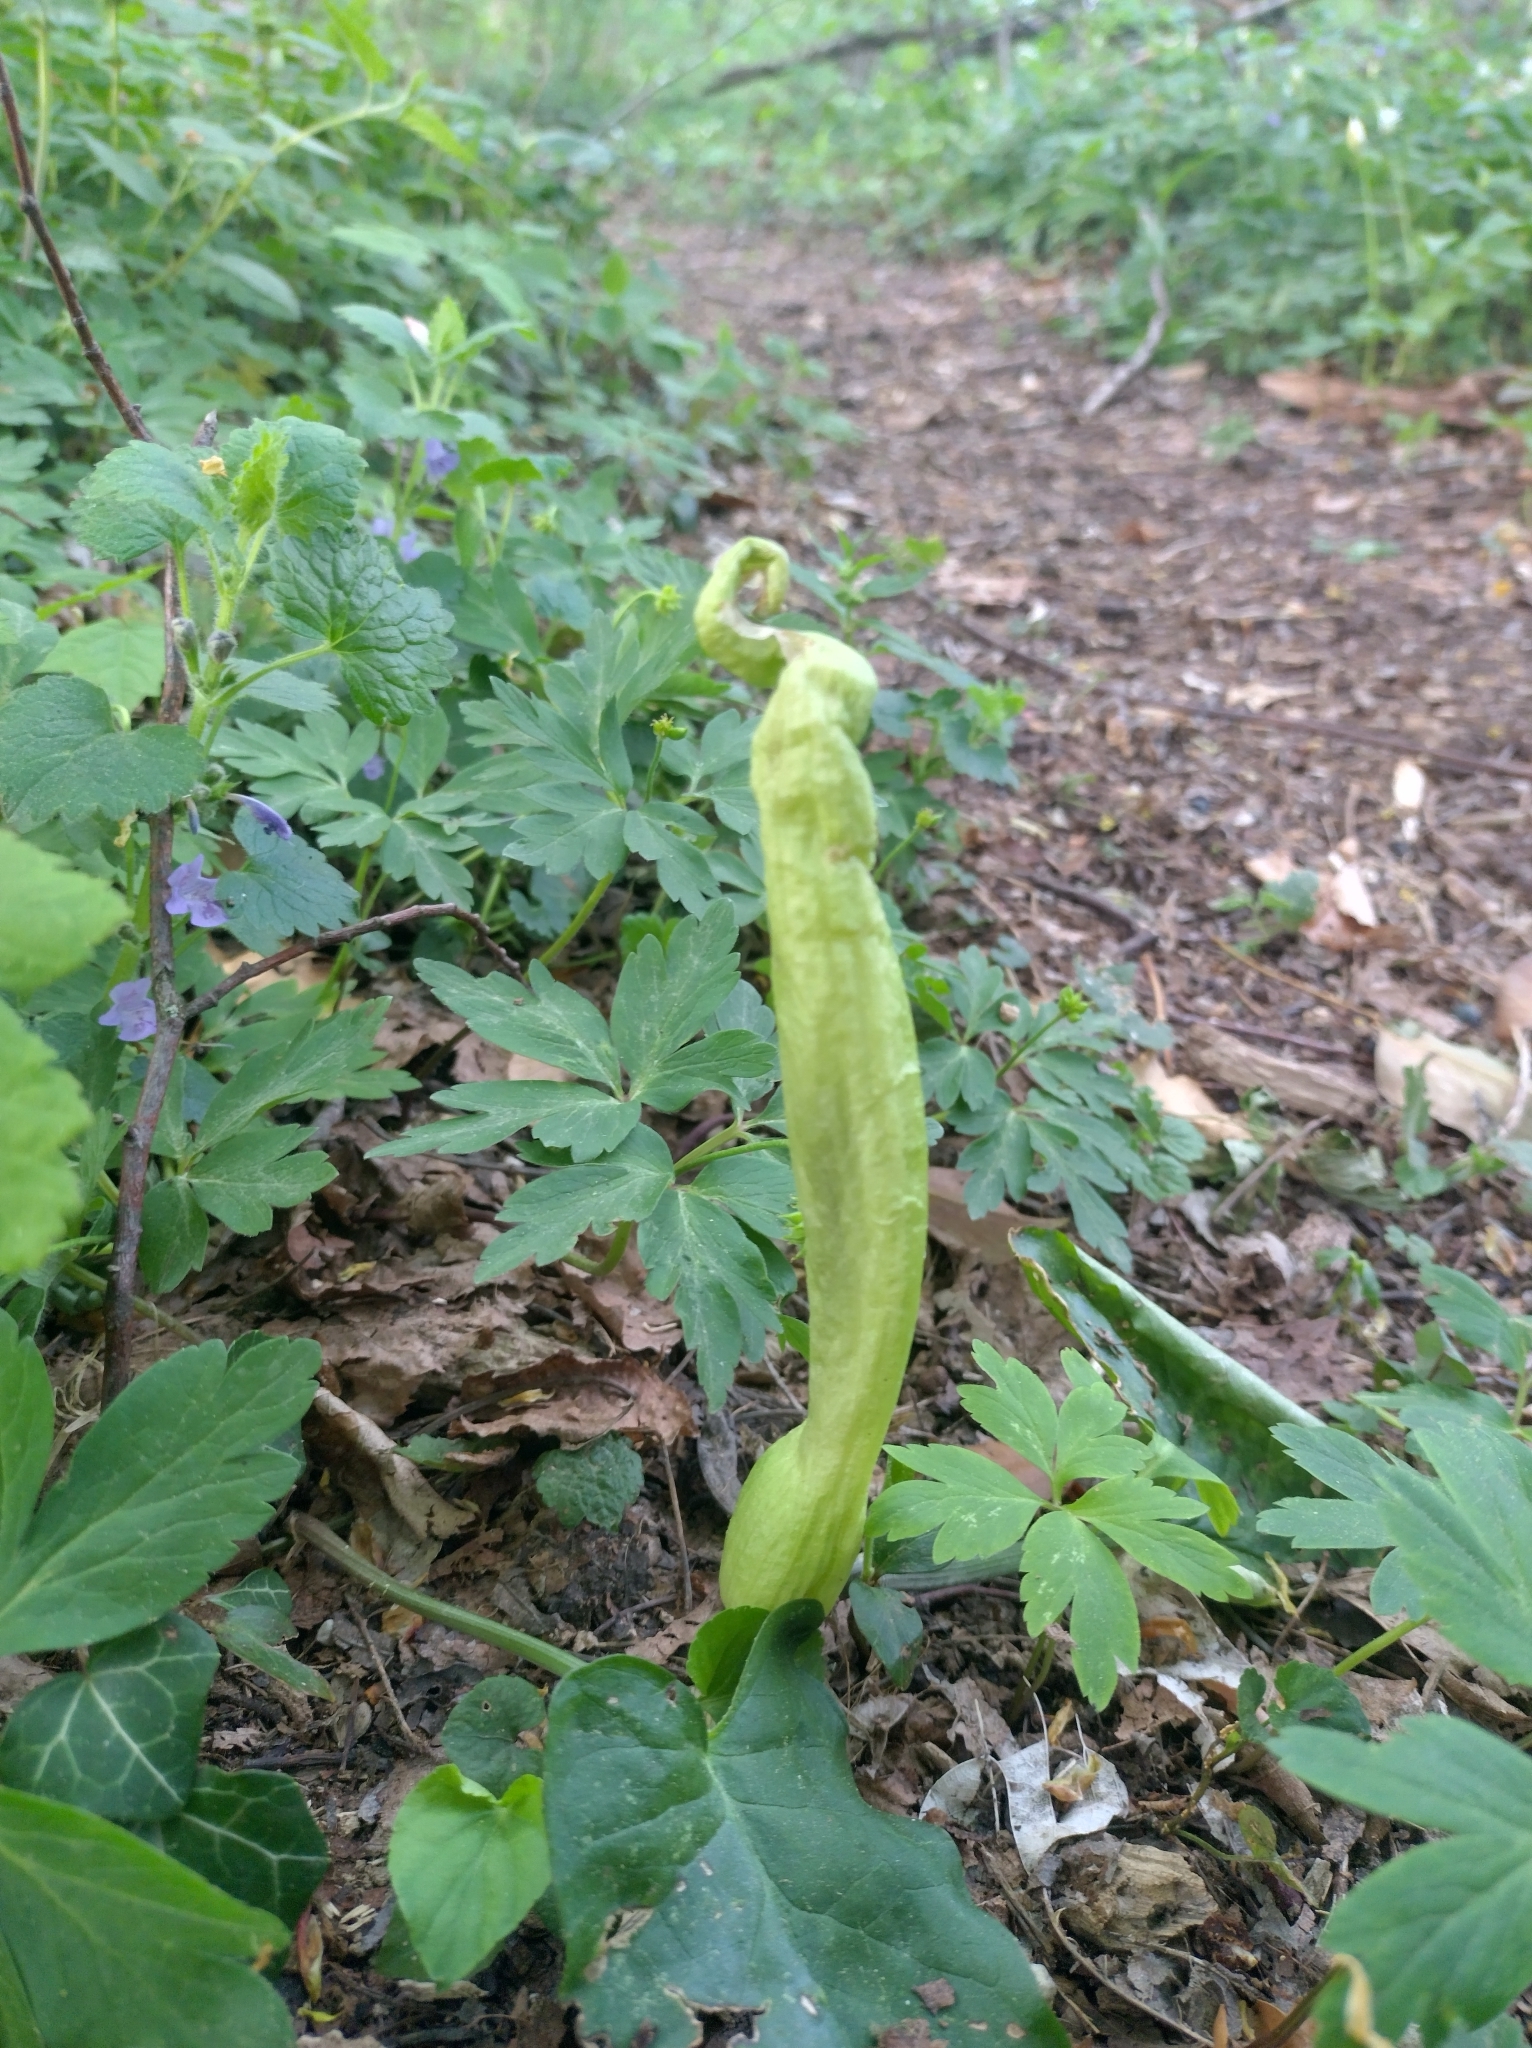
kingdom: Plantae
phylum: Tracheophyta
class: Liliopsida
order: Alismatales
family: Araceae
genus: Arum
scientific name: Arum maculatum
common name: Lords-and-ladies
